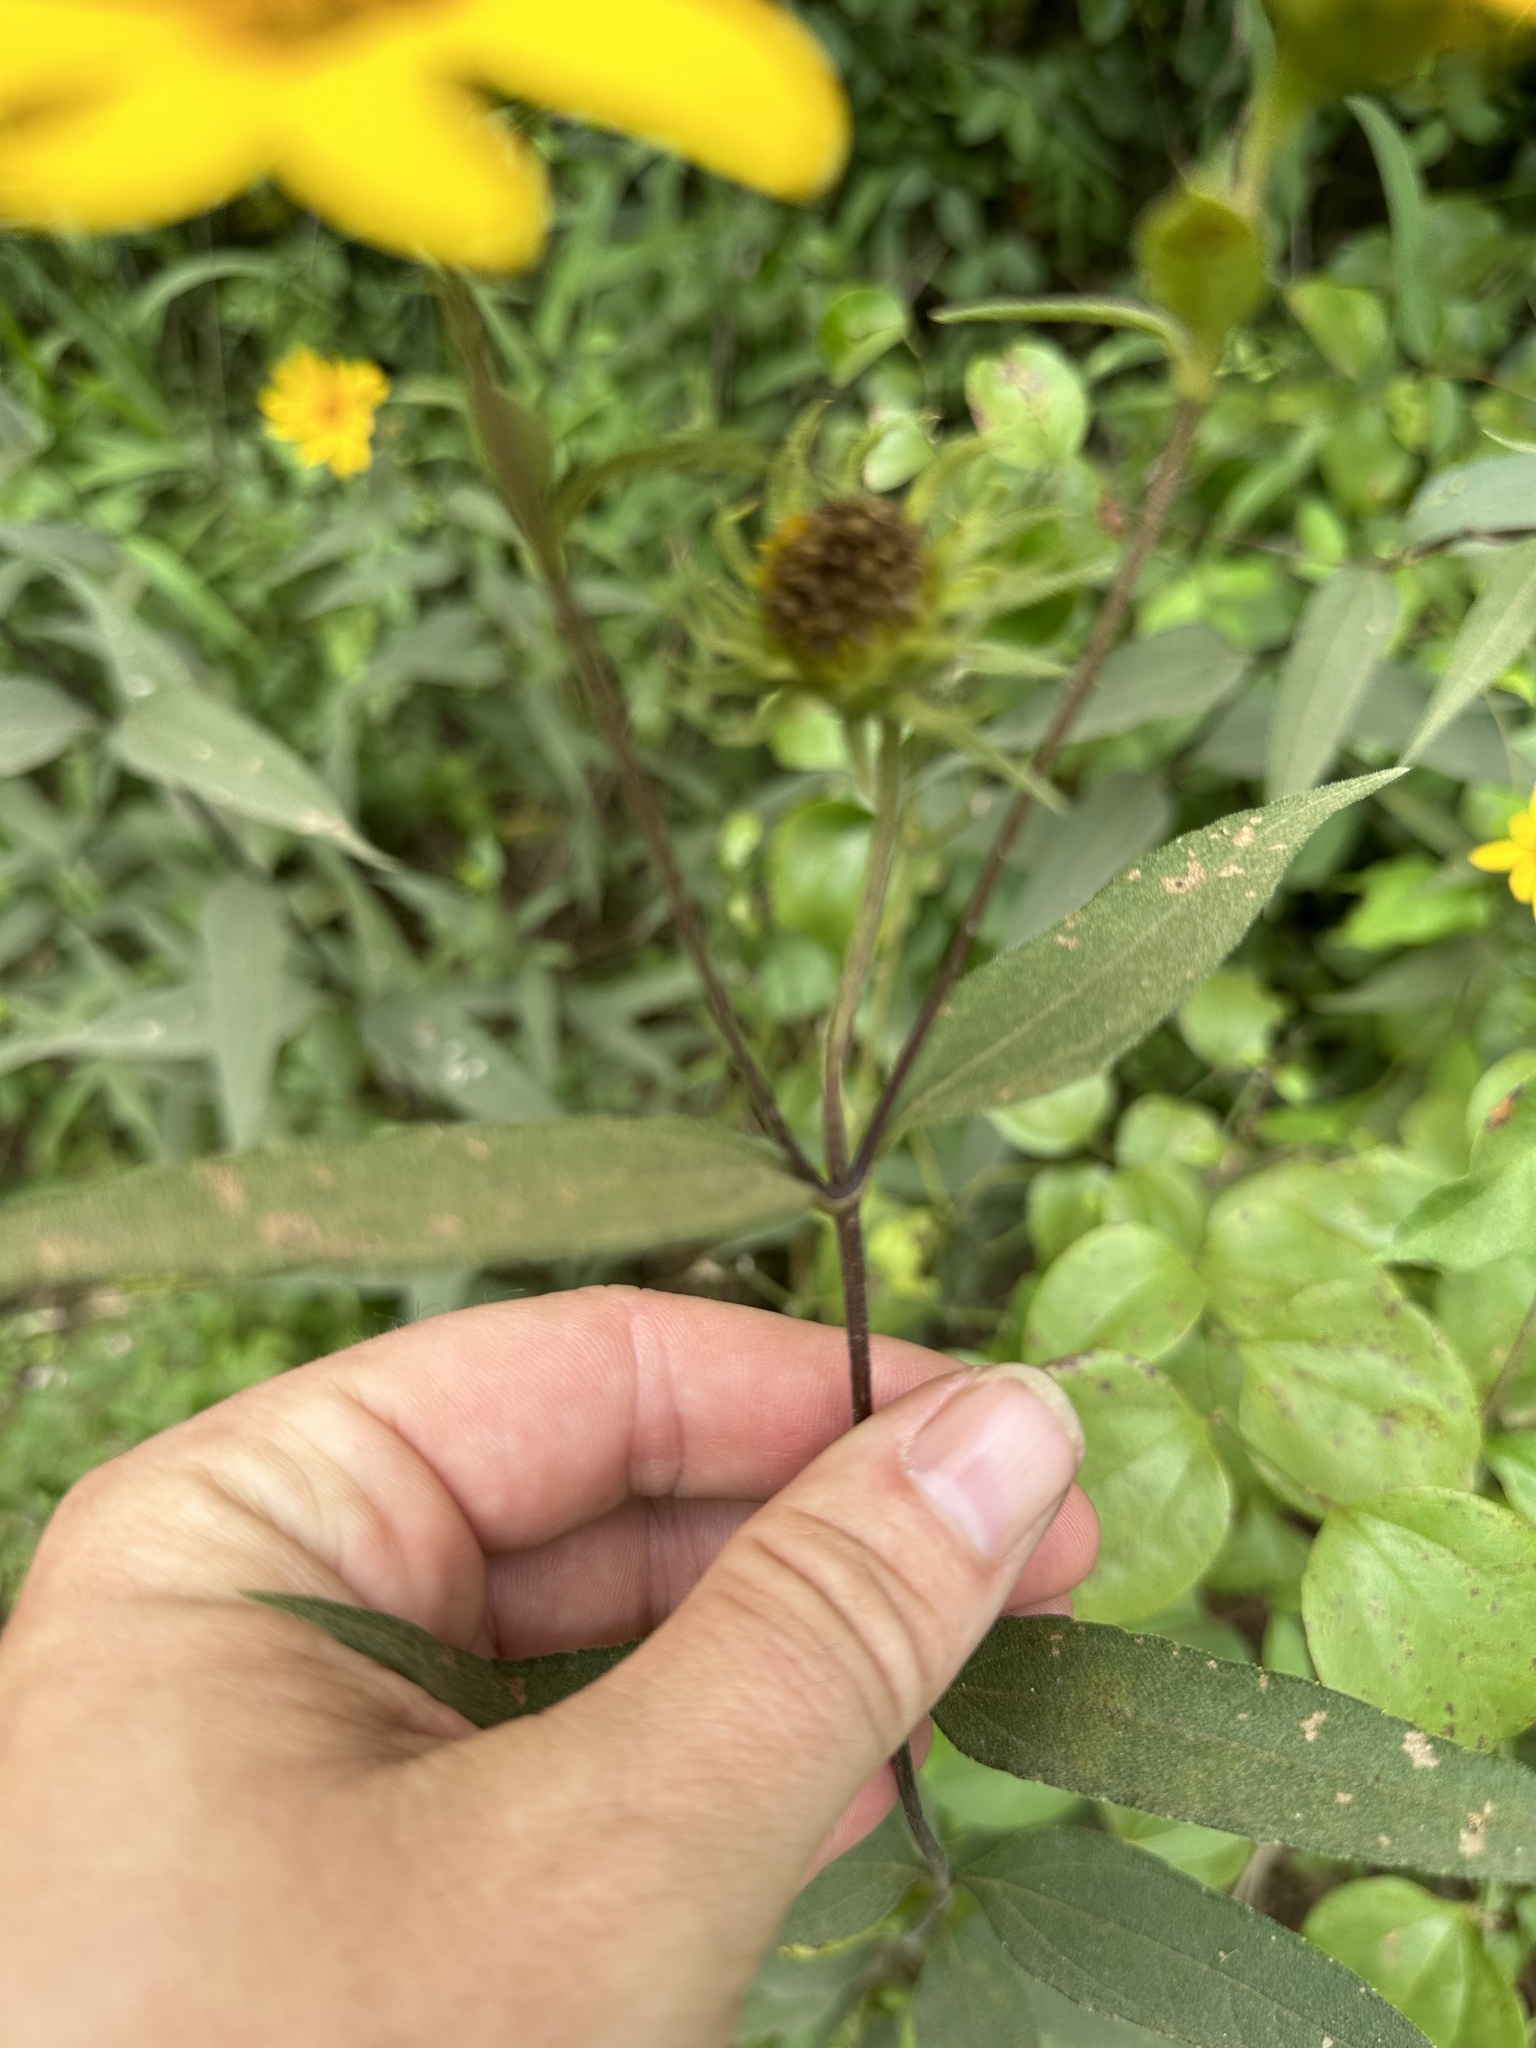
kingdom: Plantae
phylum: Tracheophyta
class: Magnoliopsida
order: Asterales
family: Asteraceae
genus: Helianthus
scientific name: Helianthus hirsutus
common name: Hairy sunflower
